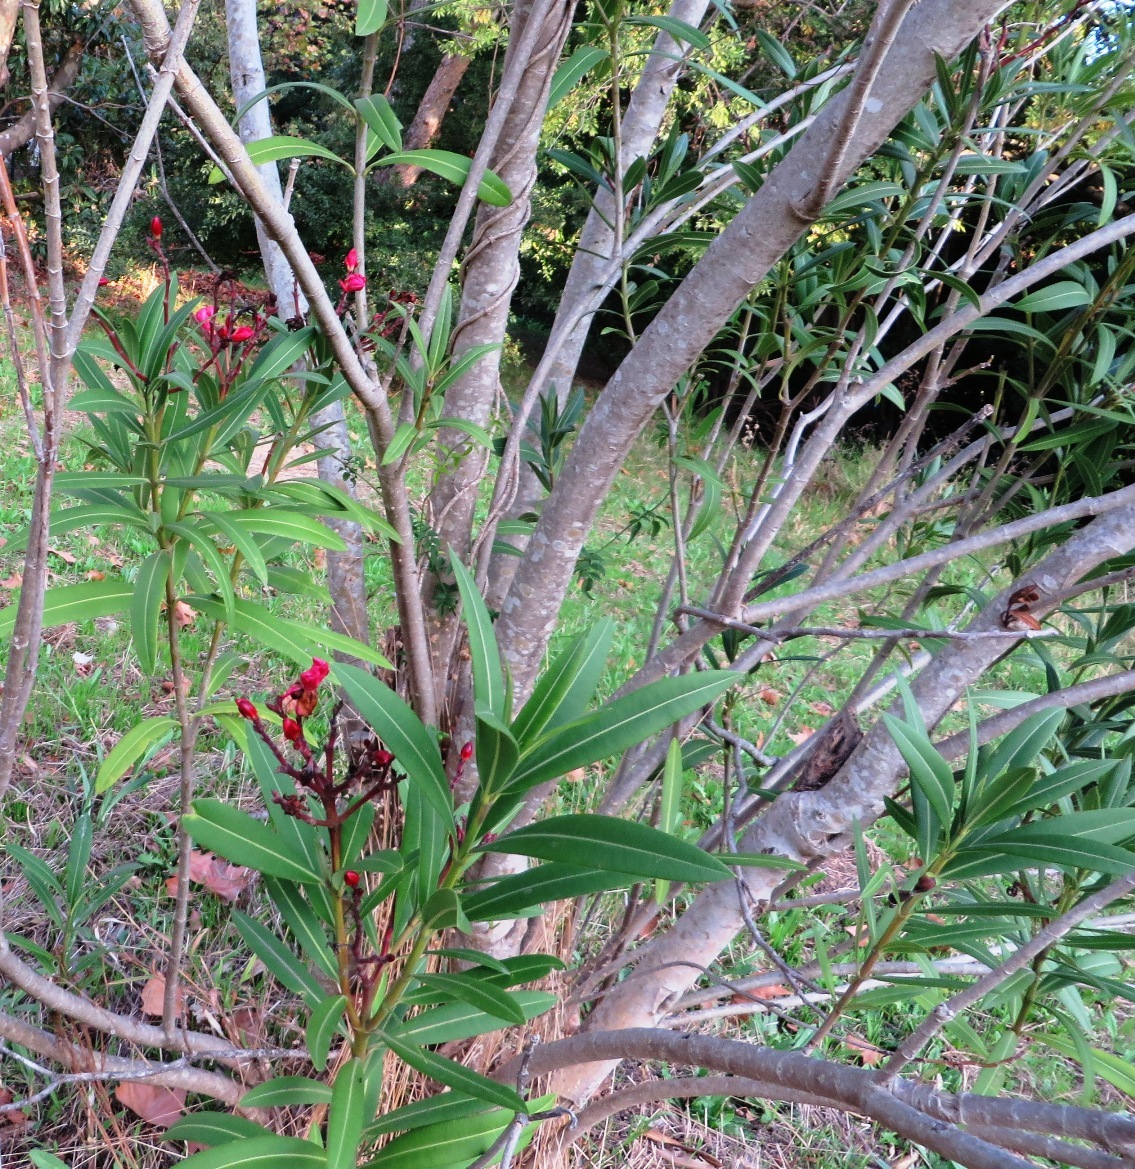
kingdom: Plantae
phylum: Tracheophyta
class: Magnoliopsida
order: Gentianales
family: Apocynaceae
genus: Nerium
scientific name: Nerium oleander
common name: Oleander
